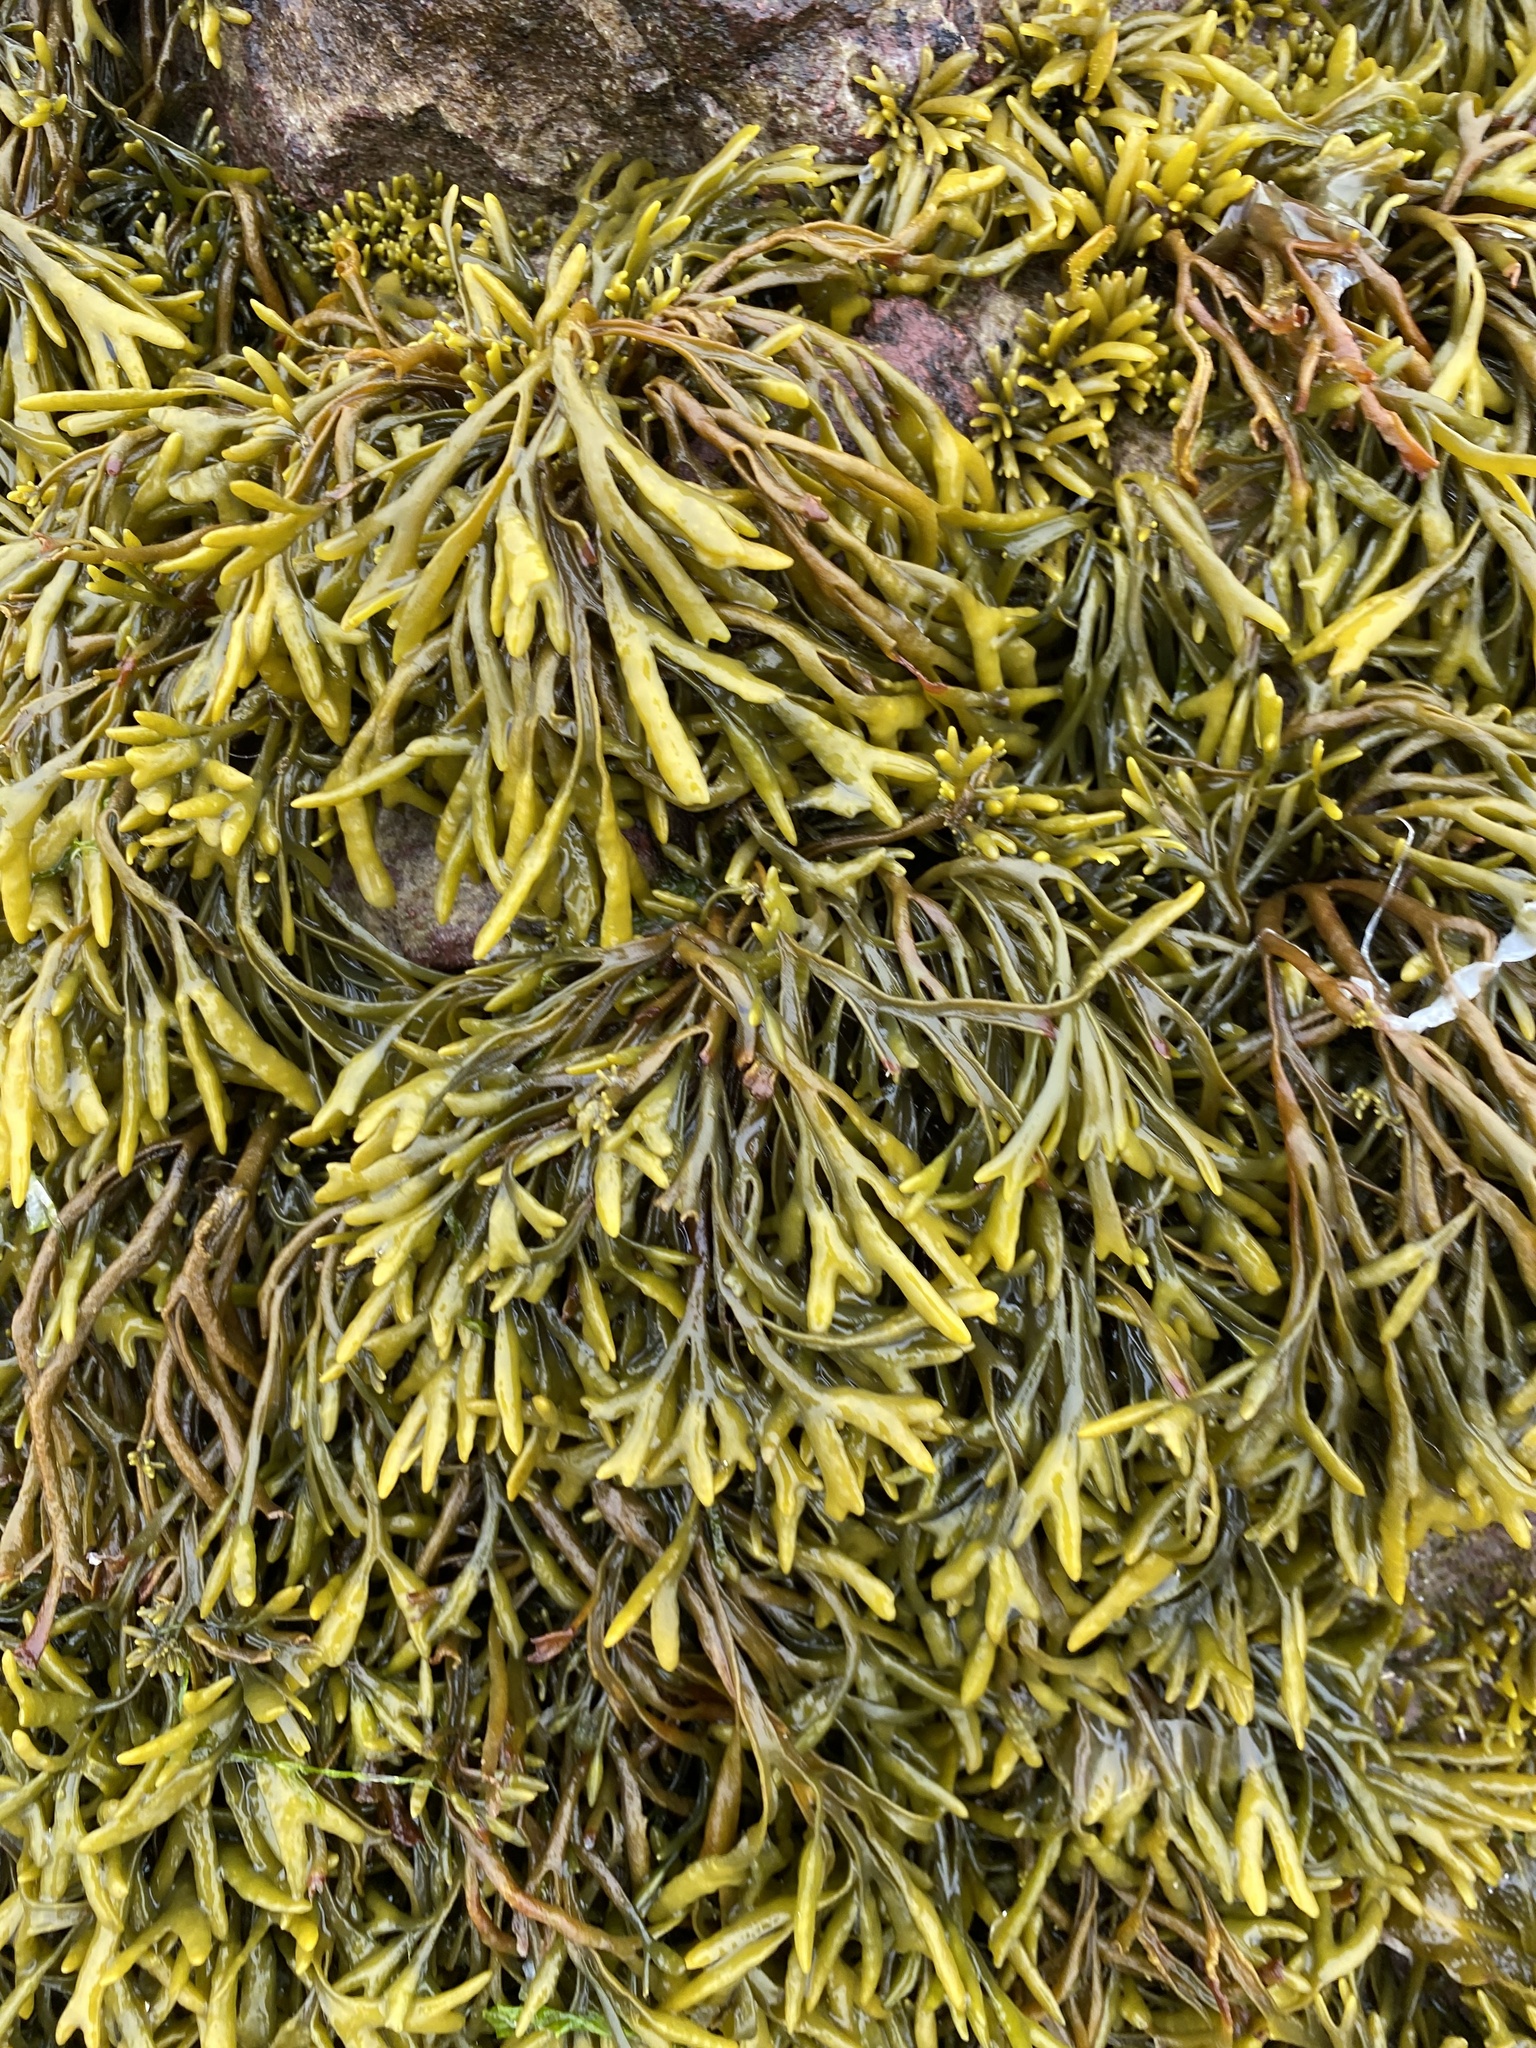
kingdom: Chromista
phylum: Ochrophyta
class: Phaeophyceae
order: Fucales
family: Fucaceae
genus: Pelvetia
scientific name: Pelvetia canaliculata
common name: Channelled wrack
